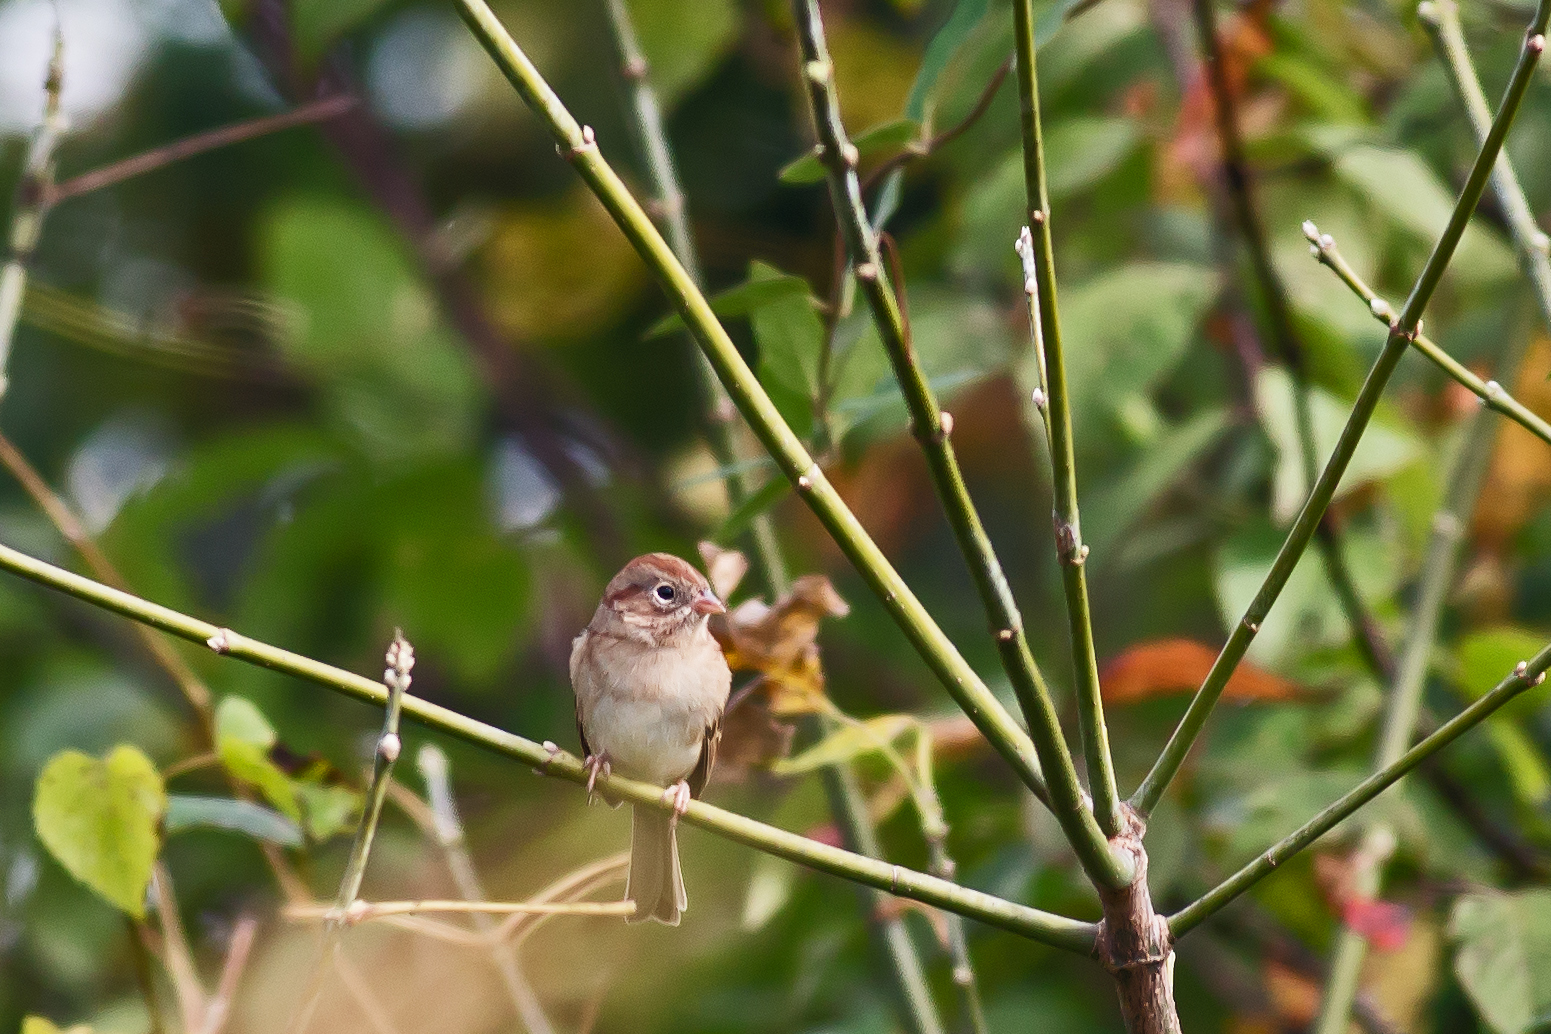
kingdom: Animalia
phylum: Chordata
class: Aves
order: Passeriformes
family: Passerellidae
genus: Spizella
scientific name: Spizella pusilla
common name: Field sparrow
